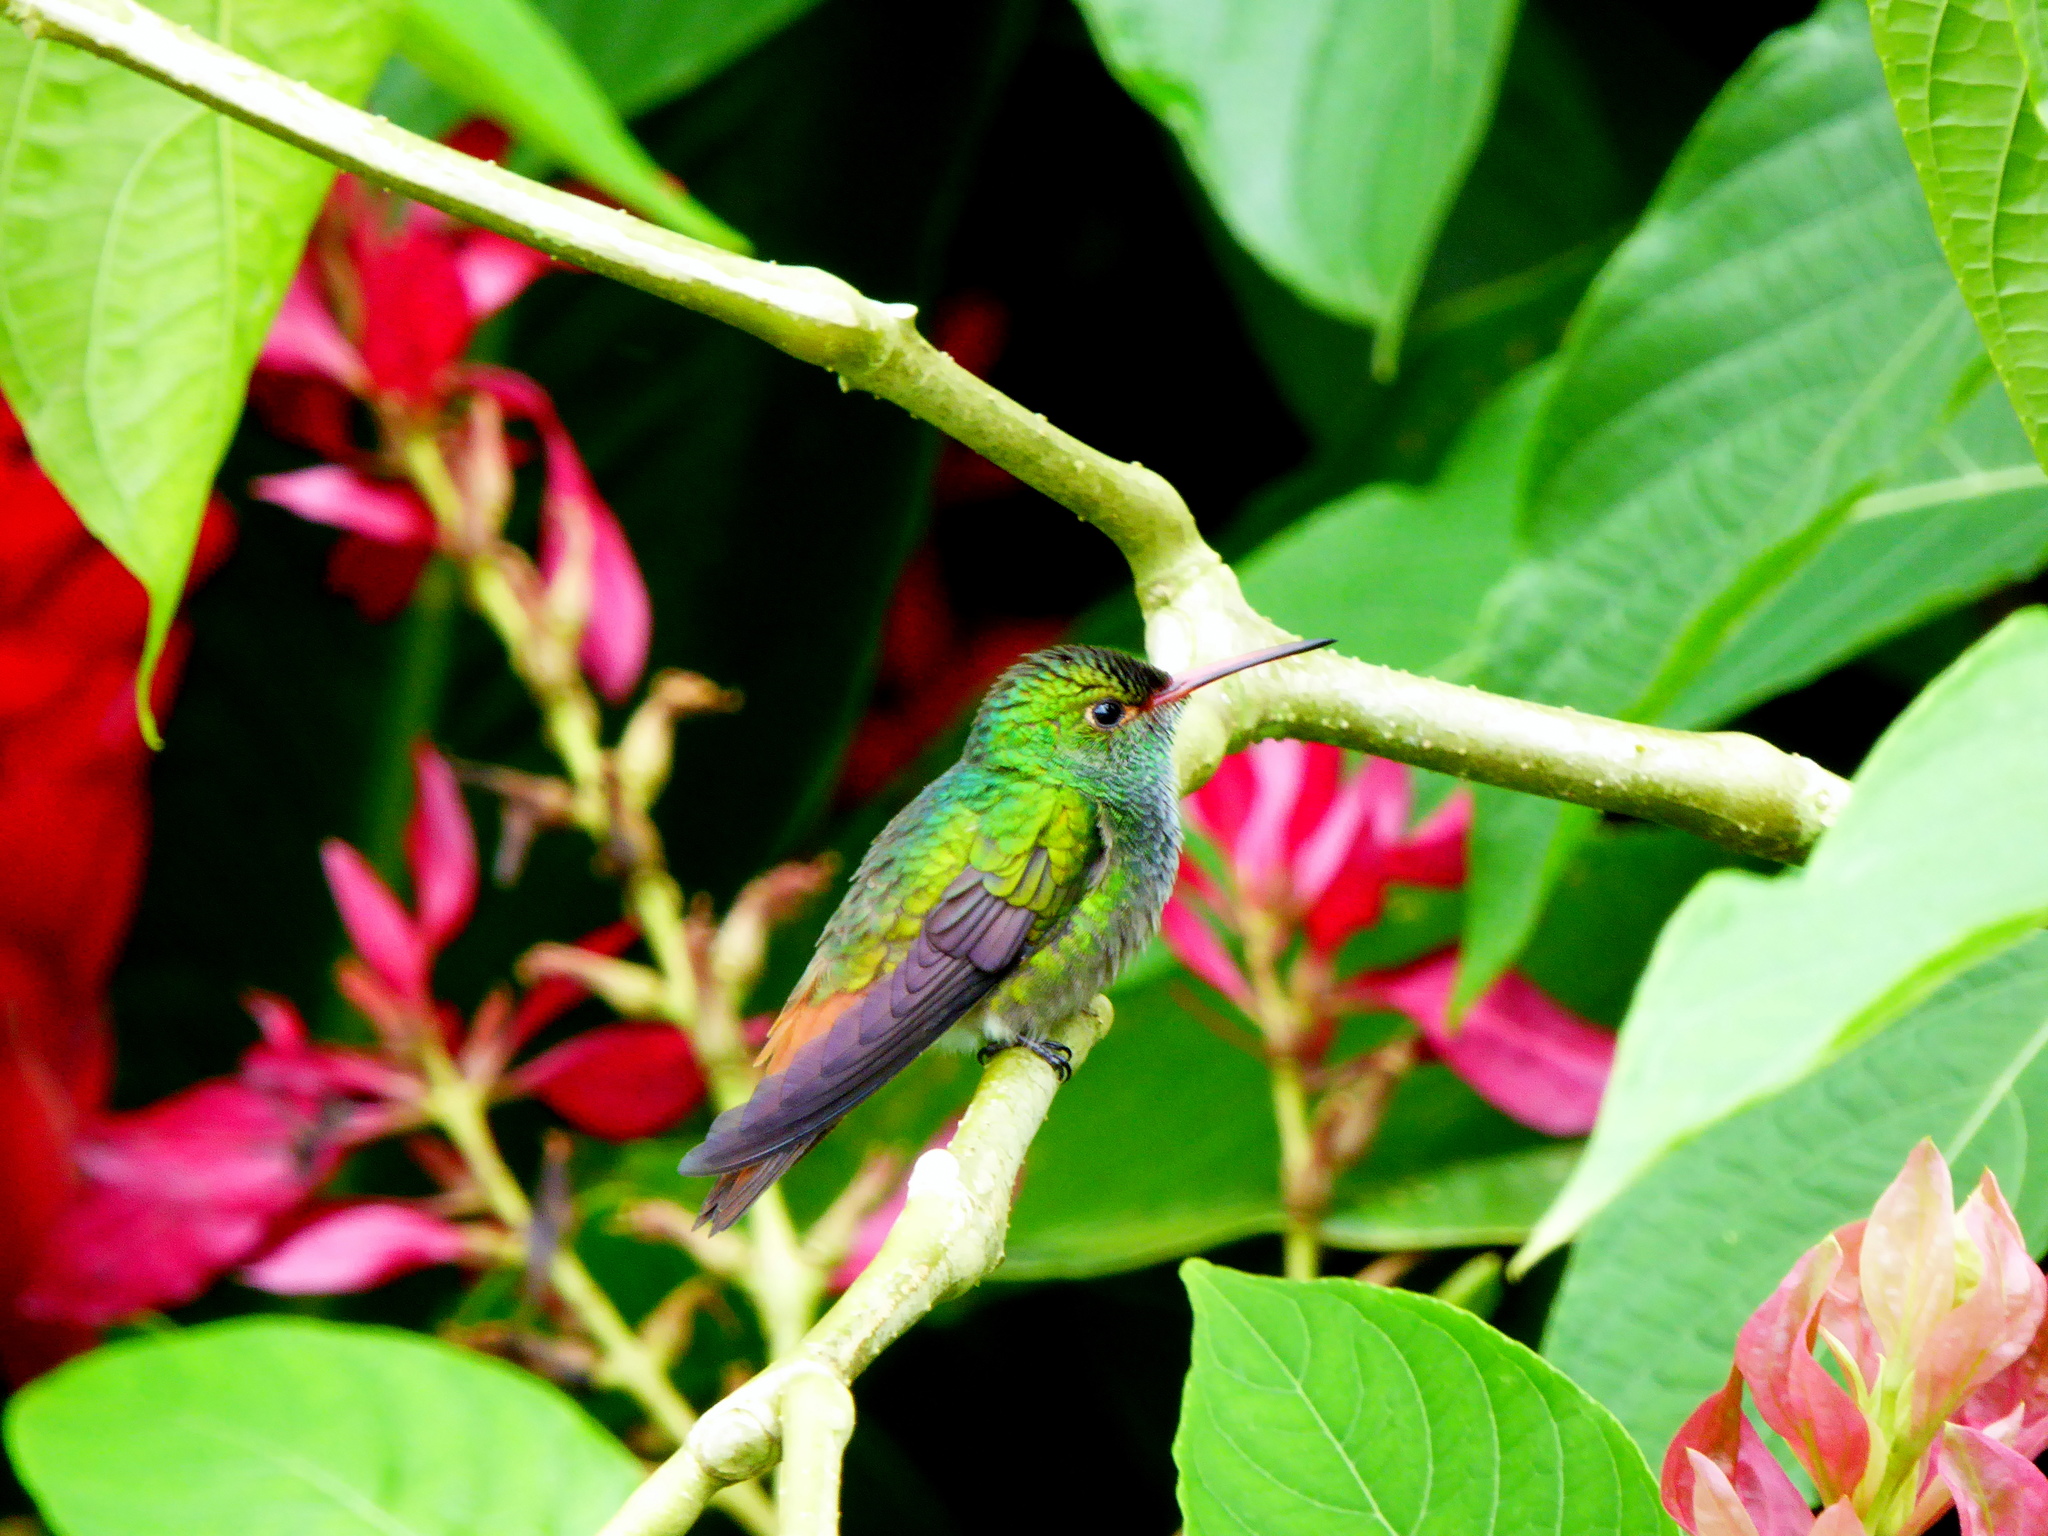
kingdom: Animalia
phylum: Chordata
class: Aves
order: Apodiformes
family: Trochilidae
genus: Amazilia
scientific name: Amazilia tzacatl
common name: Rufous-tailed hummingbird
